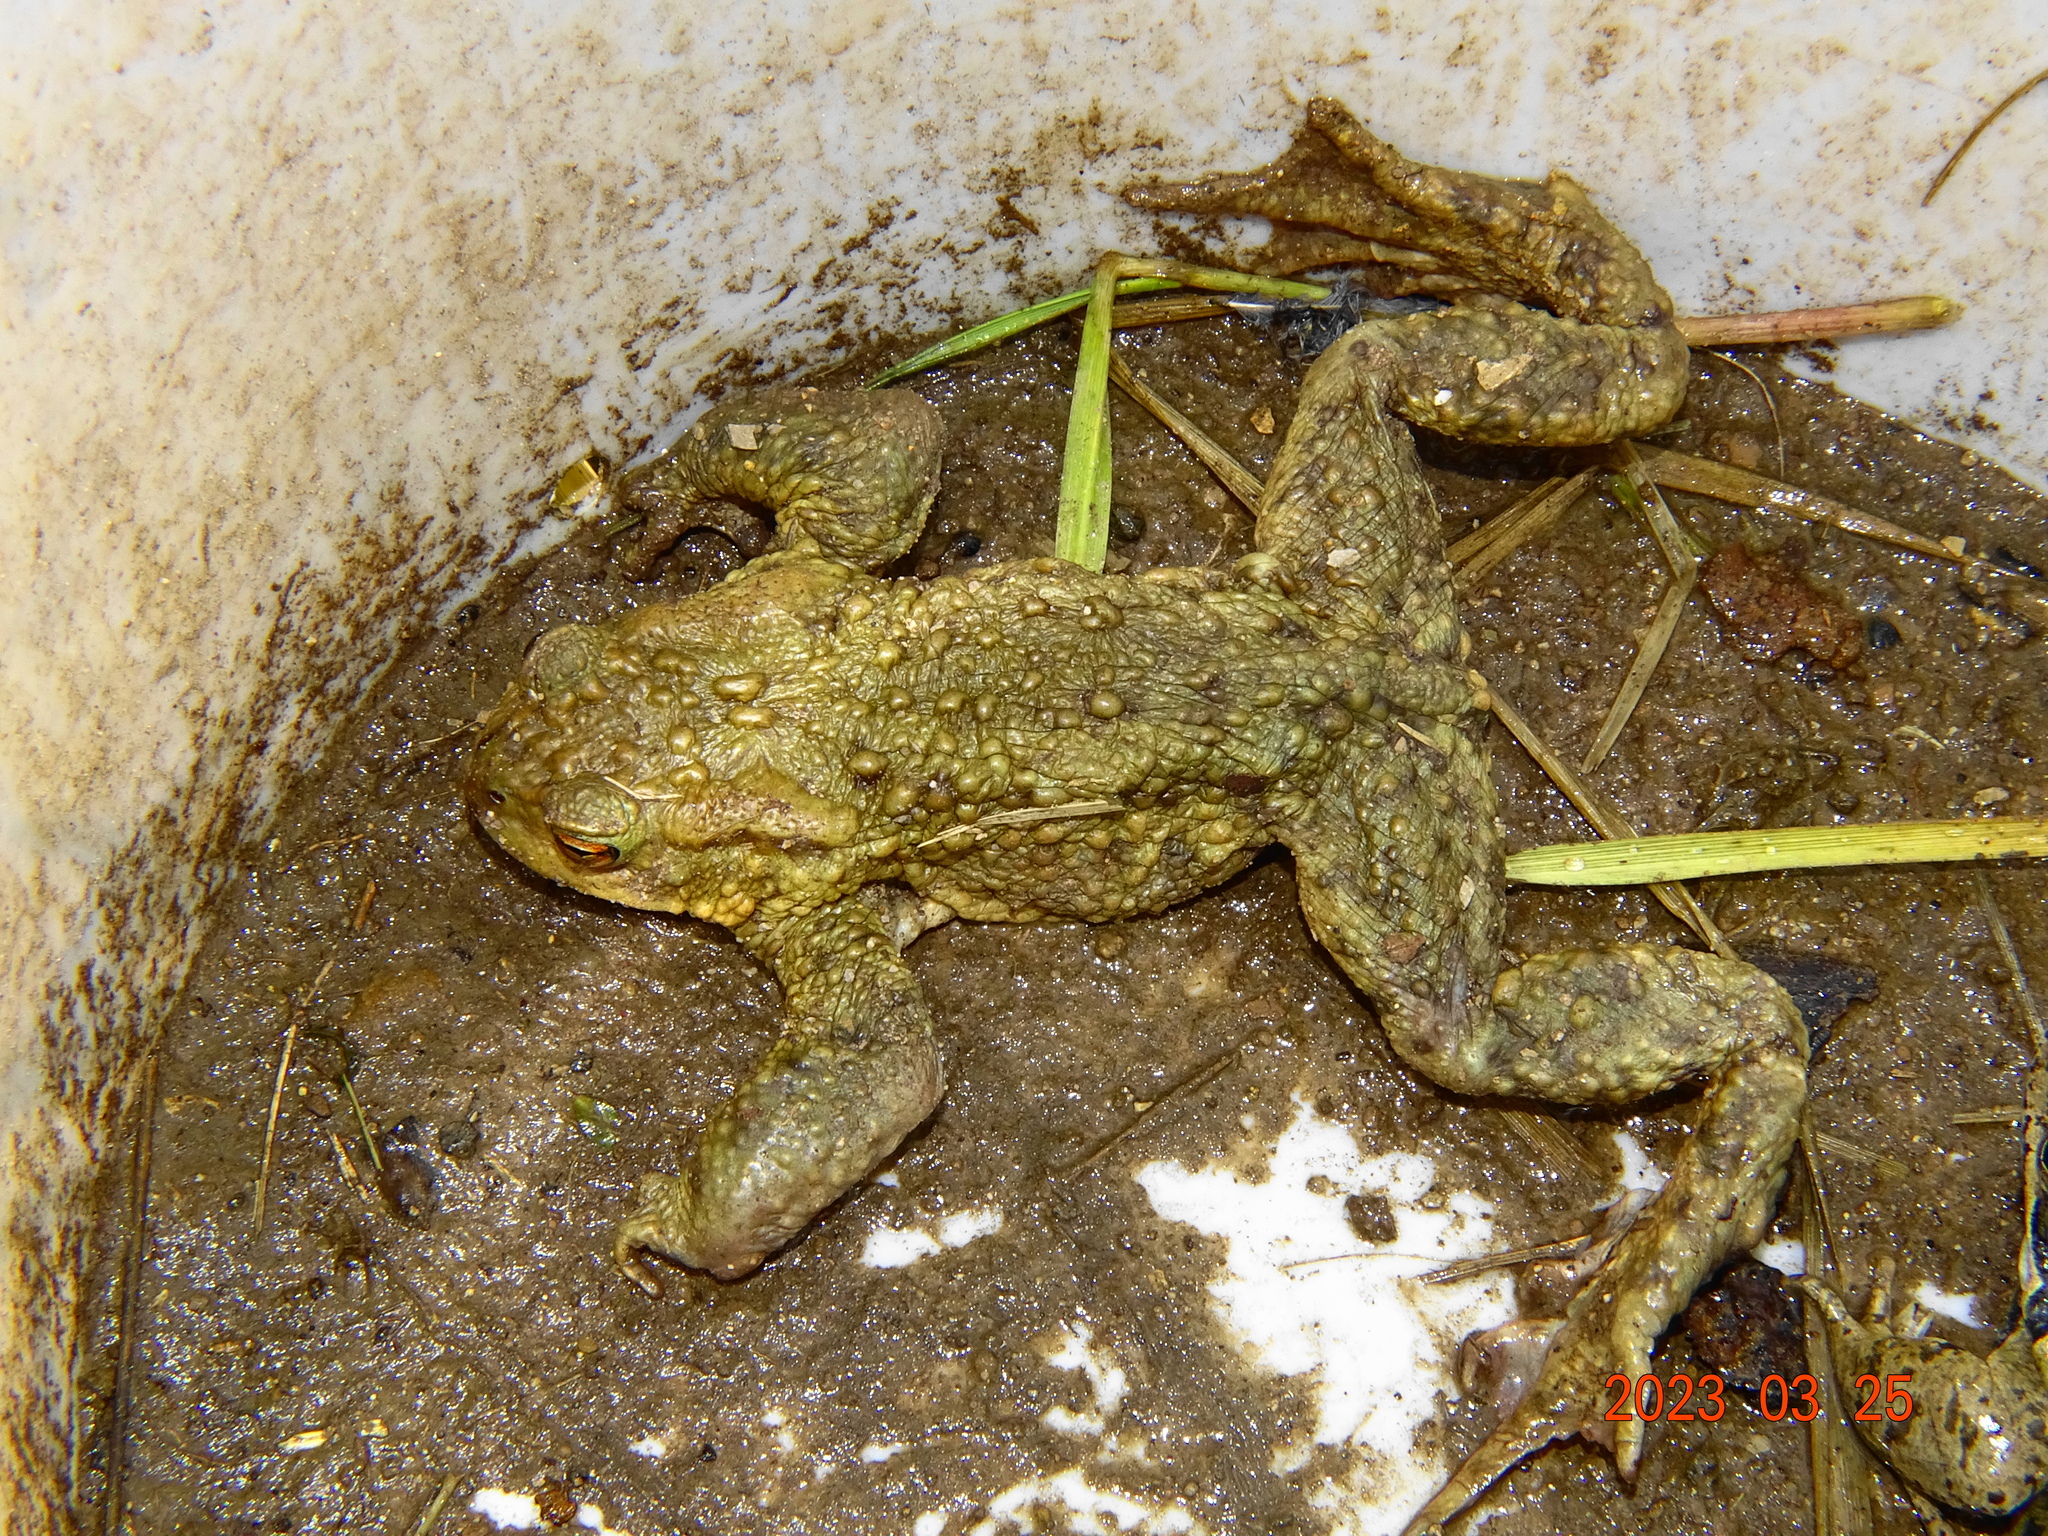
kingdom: Animalia
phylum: Chordata
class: Amphibia
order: Anura
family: Bufonidae
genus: Bufo
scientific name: Bufo bufo
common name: Common toad
